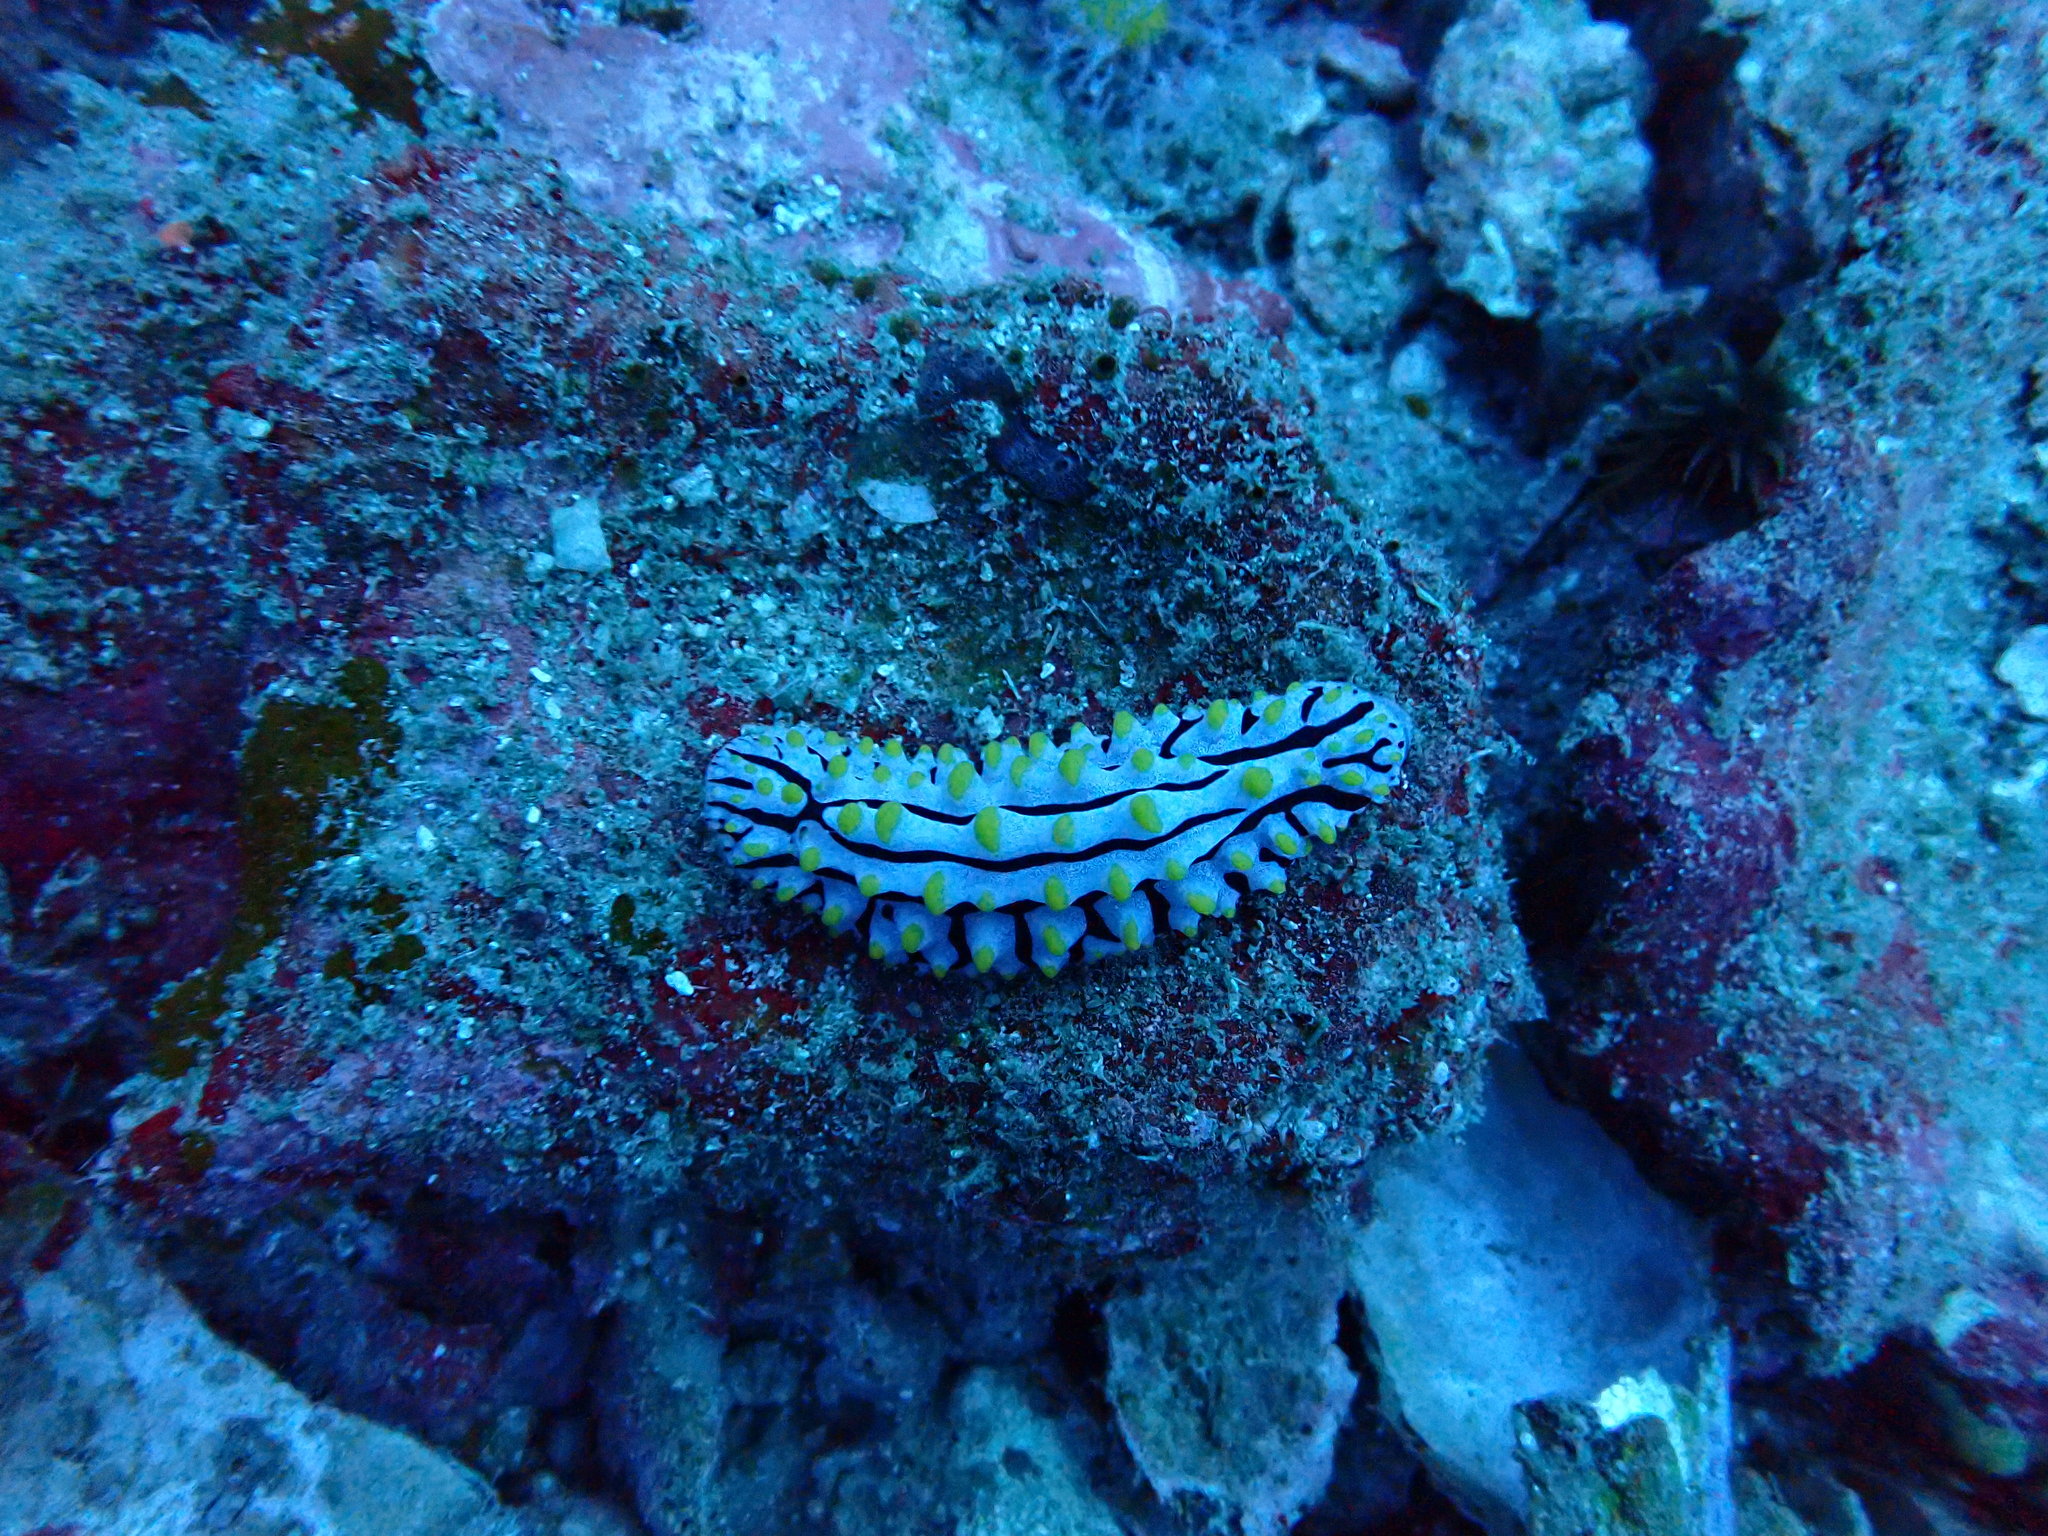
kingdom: Animalia
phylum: Mollusca
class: Gastropoda
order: Nudibranchia
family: Phyllidiidae
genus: Phyllidia
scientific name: Phyllidia varicosa
